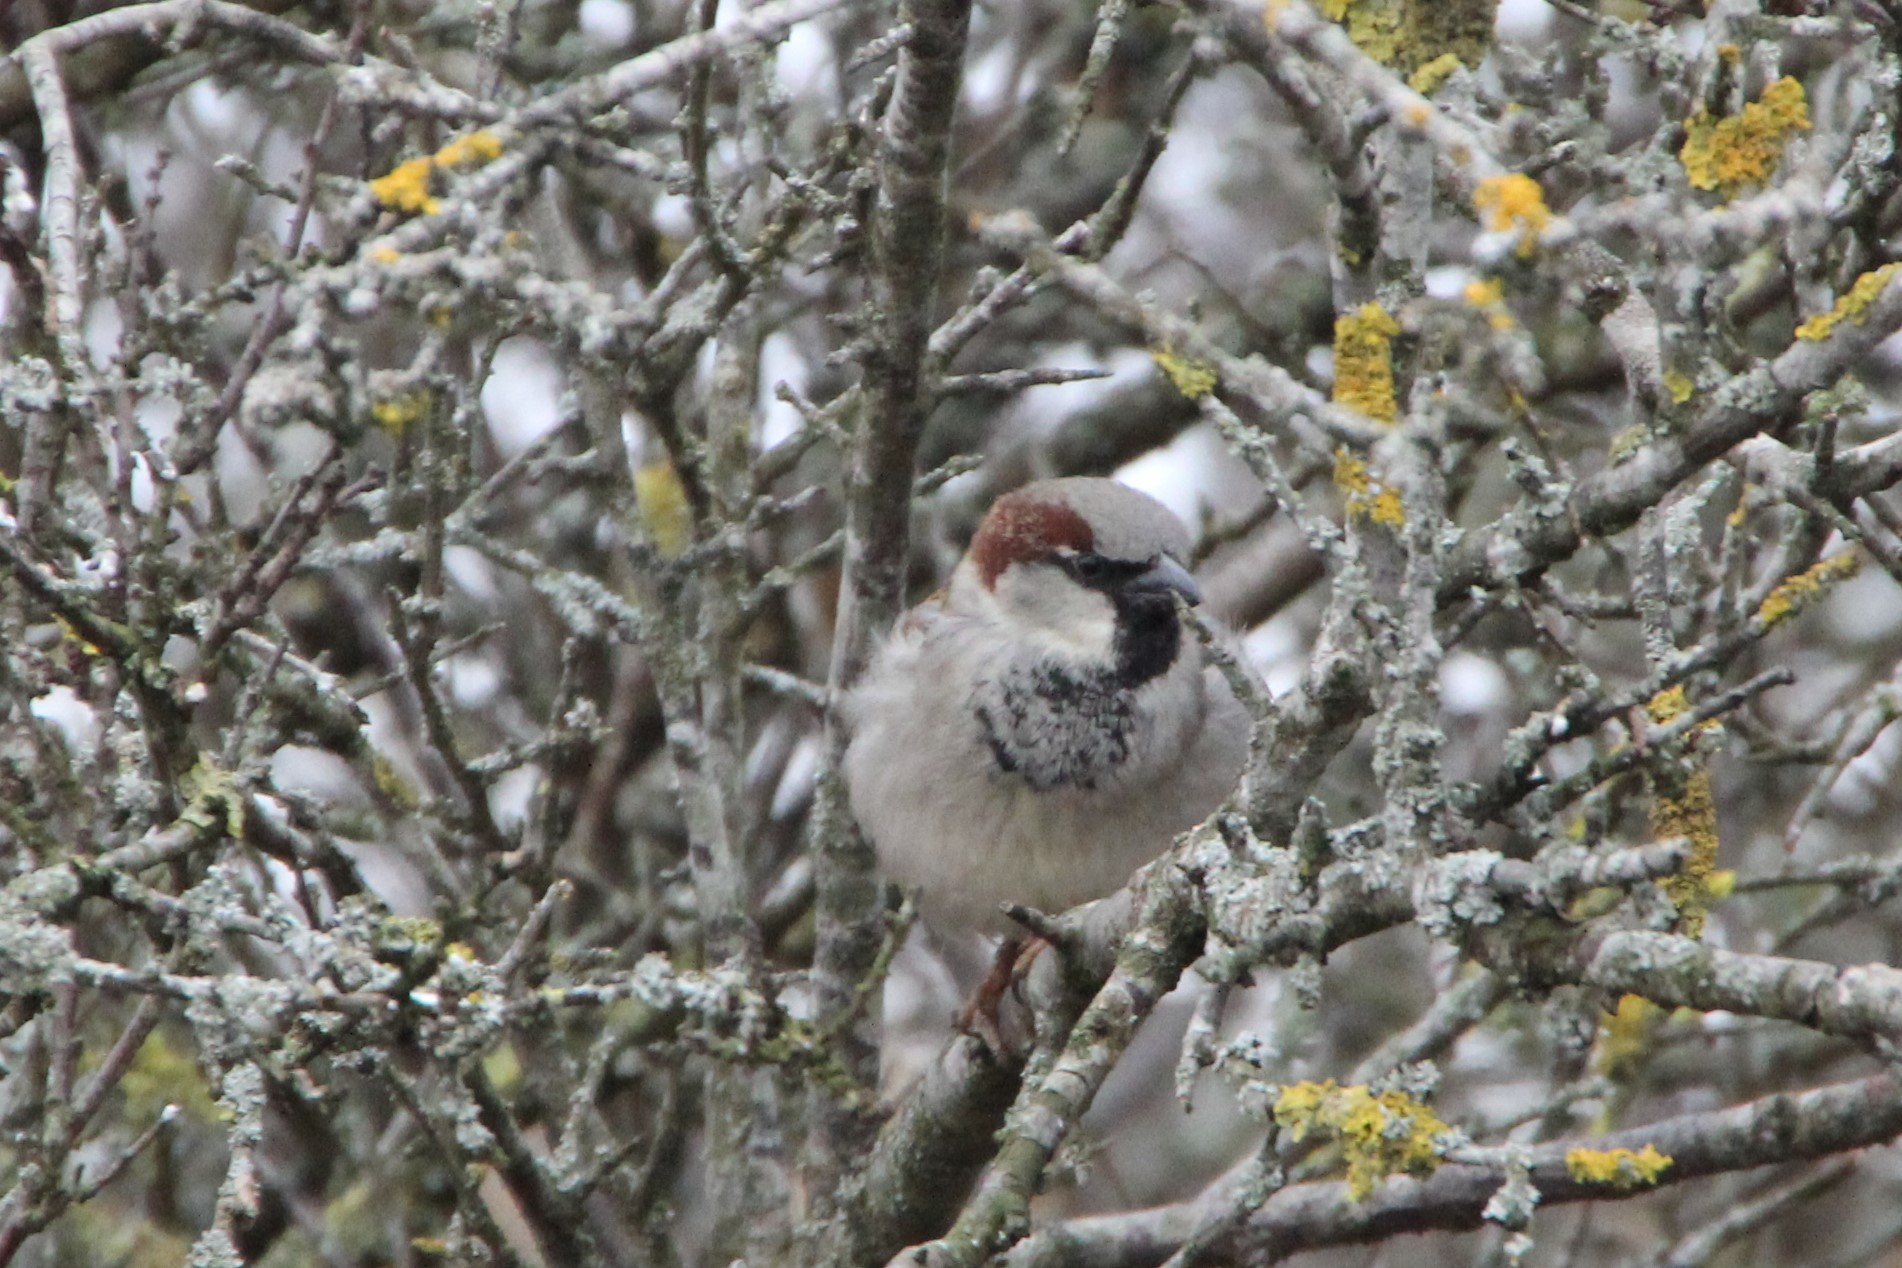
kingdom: Animalia
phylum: Chordata
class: Aves
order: Passeriformes
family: Passeridae
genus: Passer
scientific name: Passer domesticus
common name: House sparrow
